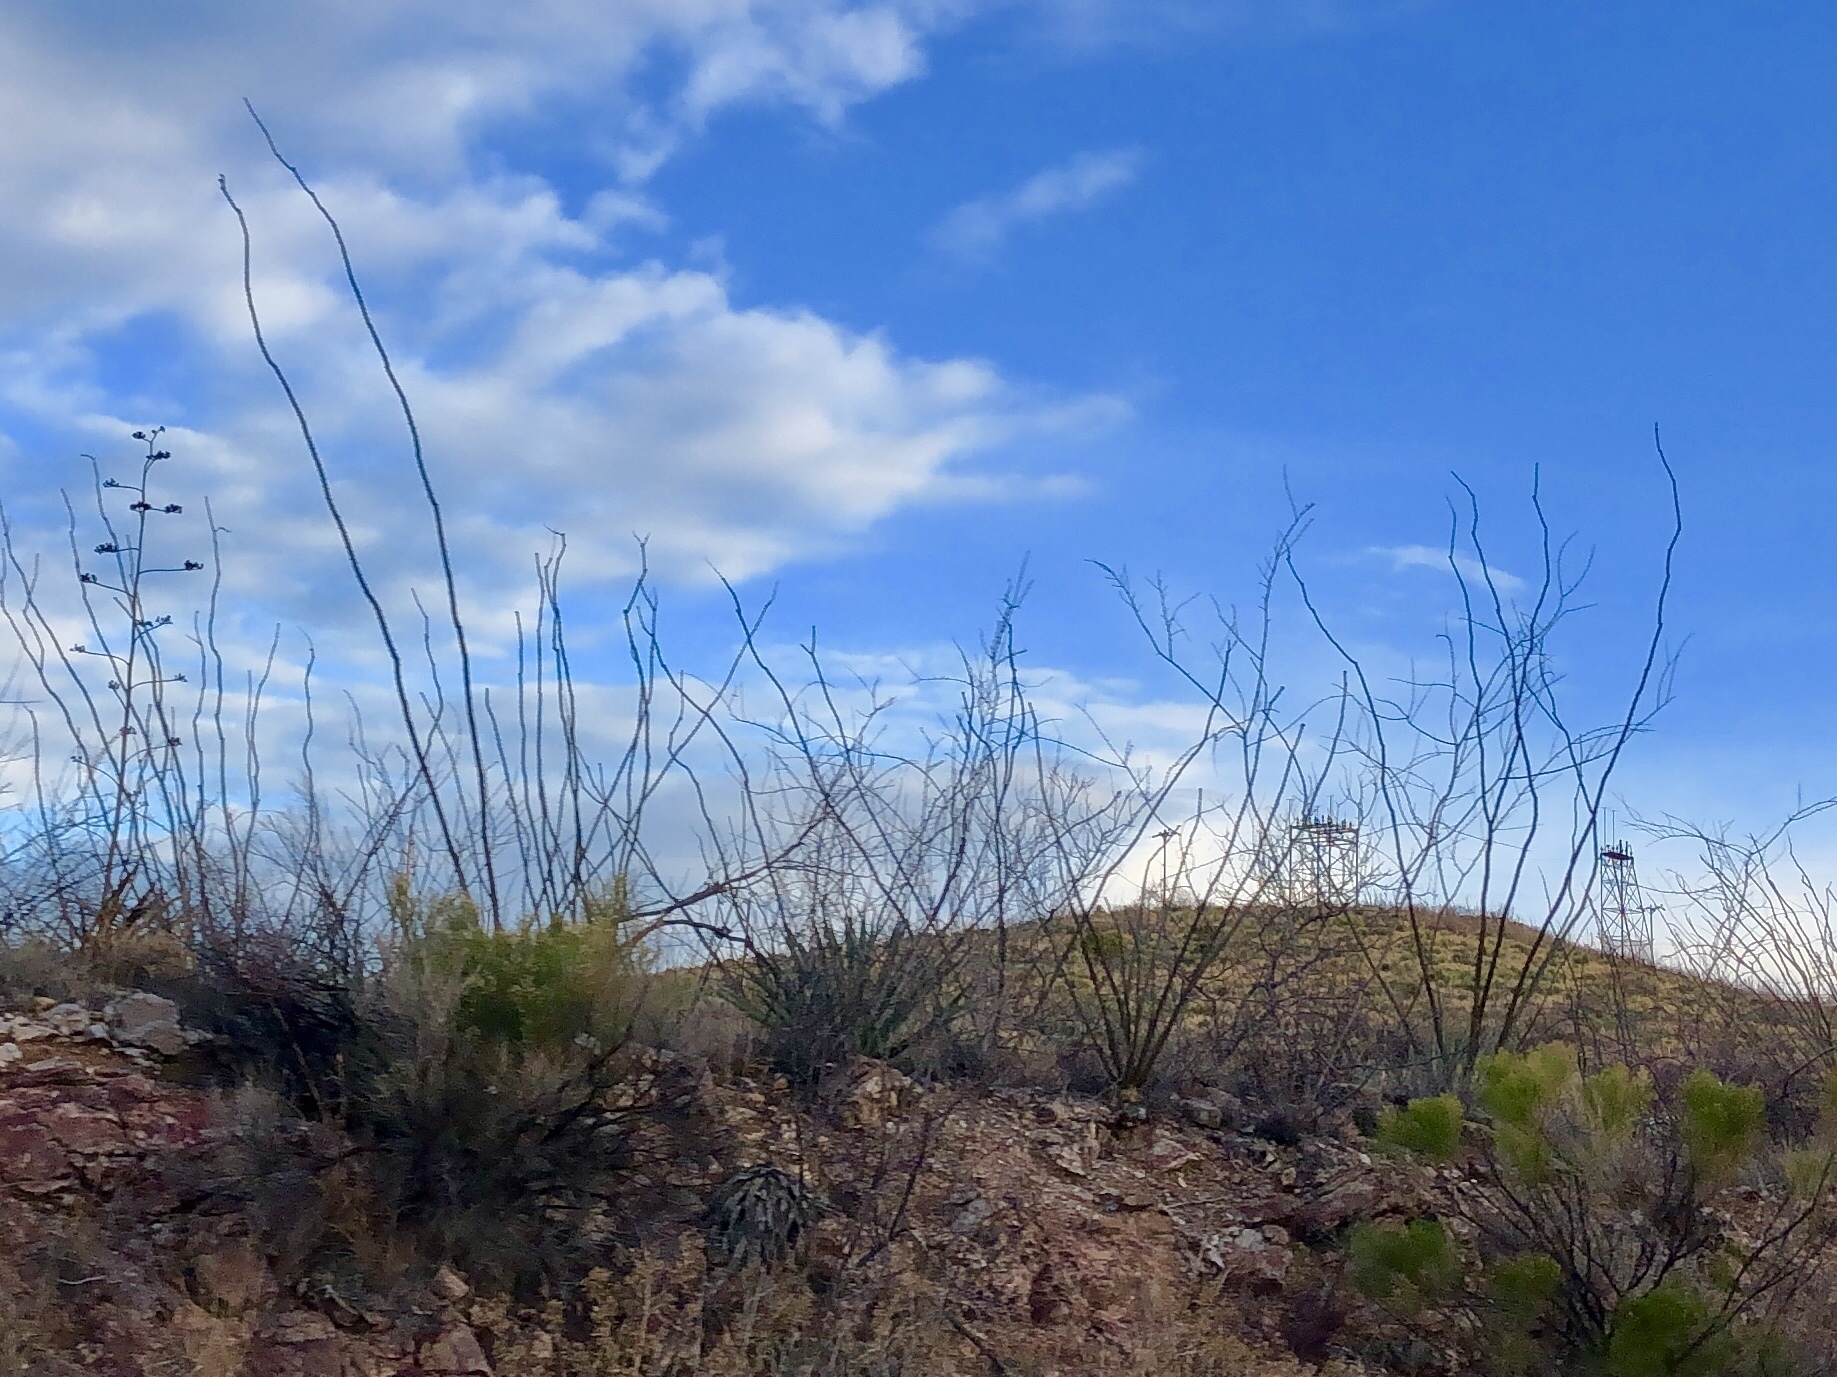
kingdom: Plantae
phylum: Tracheophyta
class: Magnoliopsida
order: Ericales
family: Fouquieriaceae
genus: Fouquieria
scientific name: Fouquieria splendens
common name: Vine-cactus
